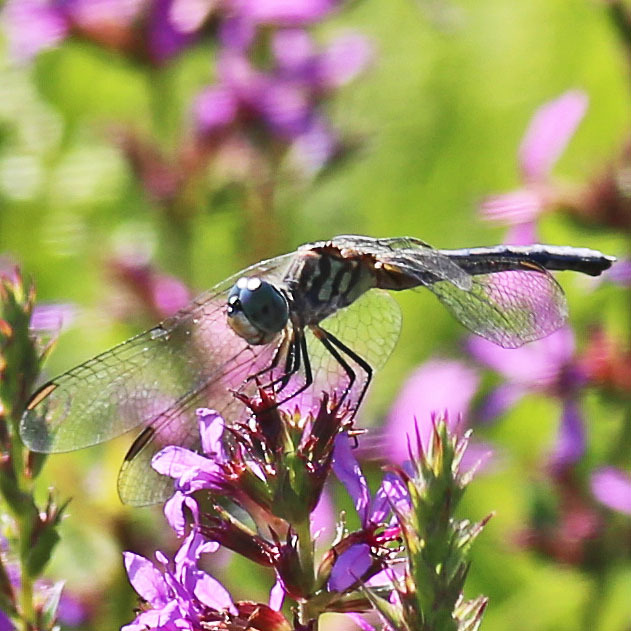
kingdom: Animalia
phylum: Arthropoda
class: Insecta
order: Odonata
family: Libellulidae
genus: Pachydiplax
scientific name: Pachydiplax longipennis
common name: Blue dasher
